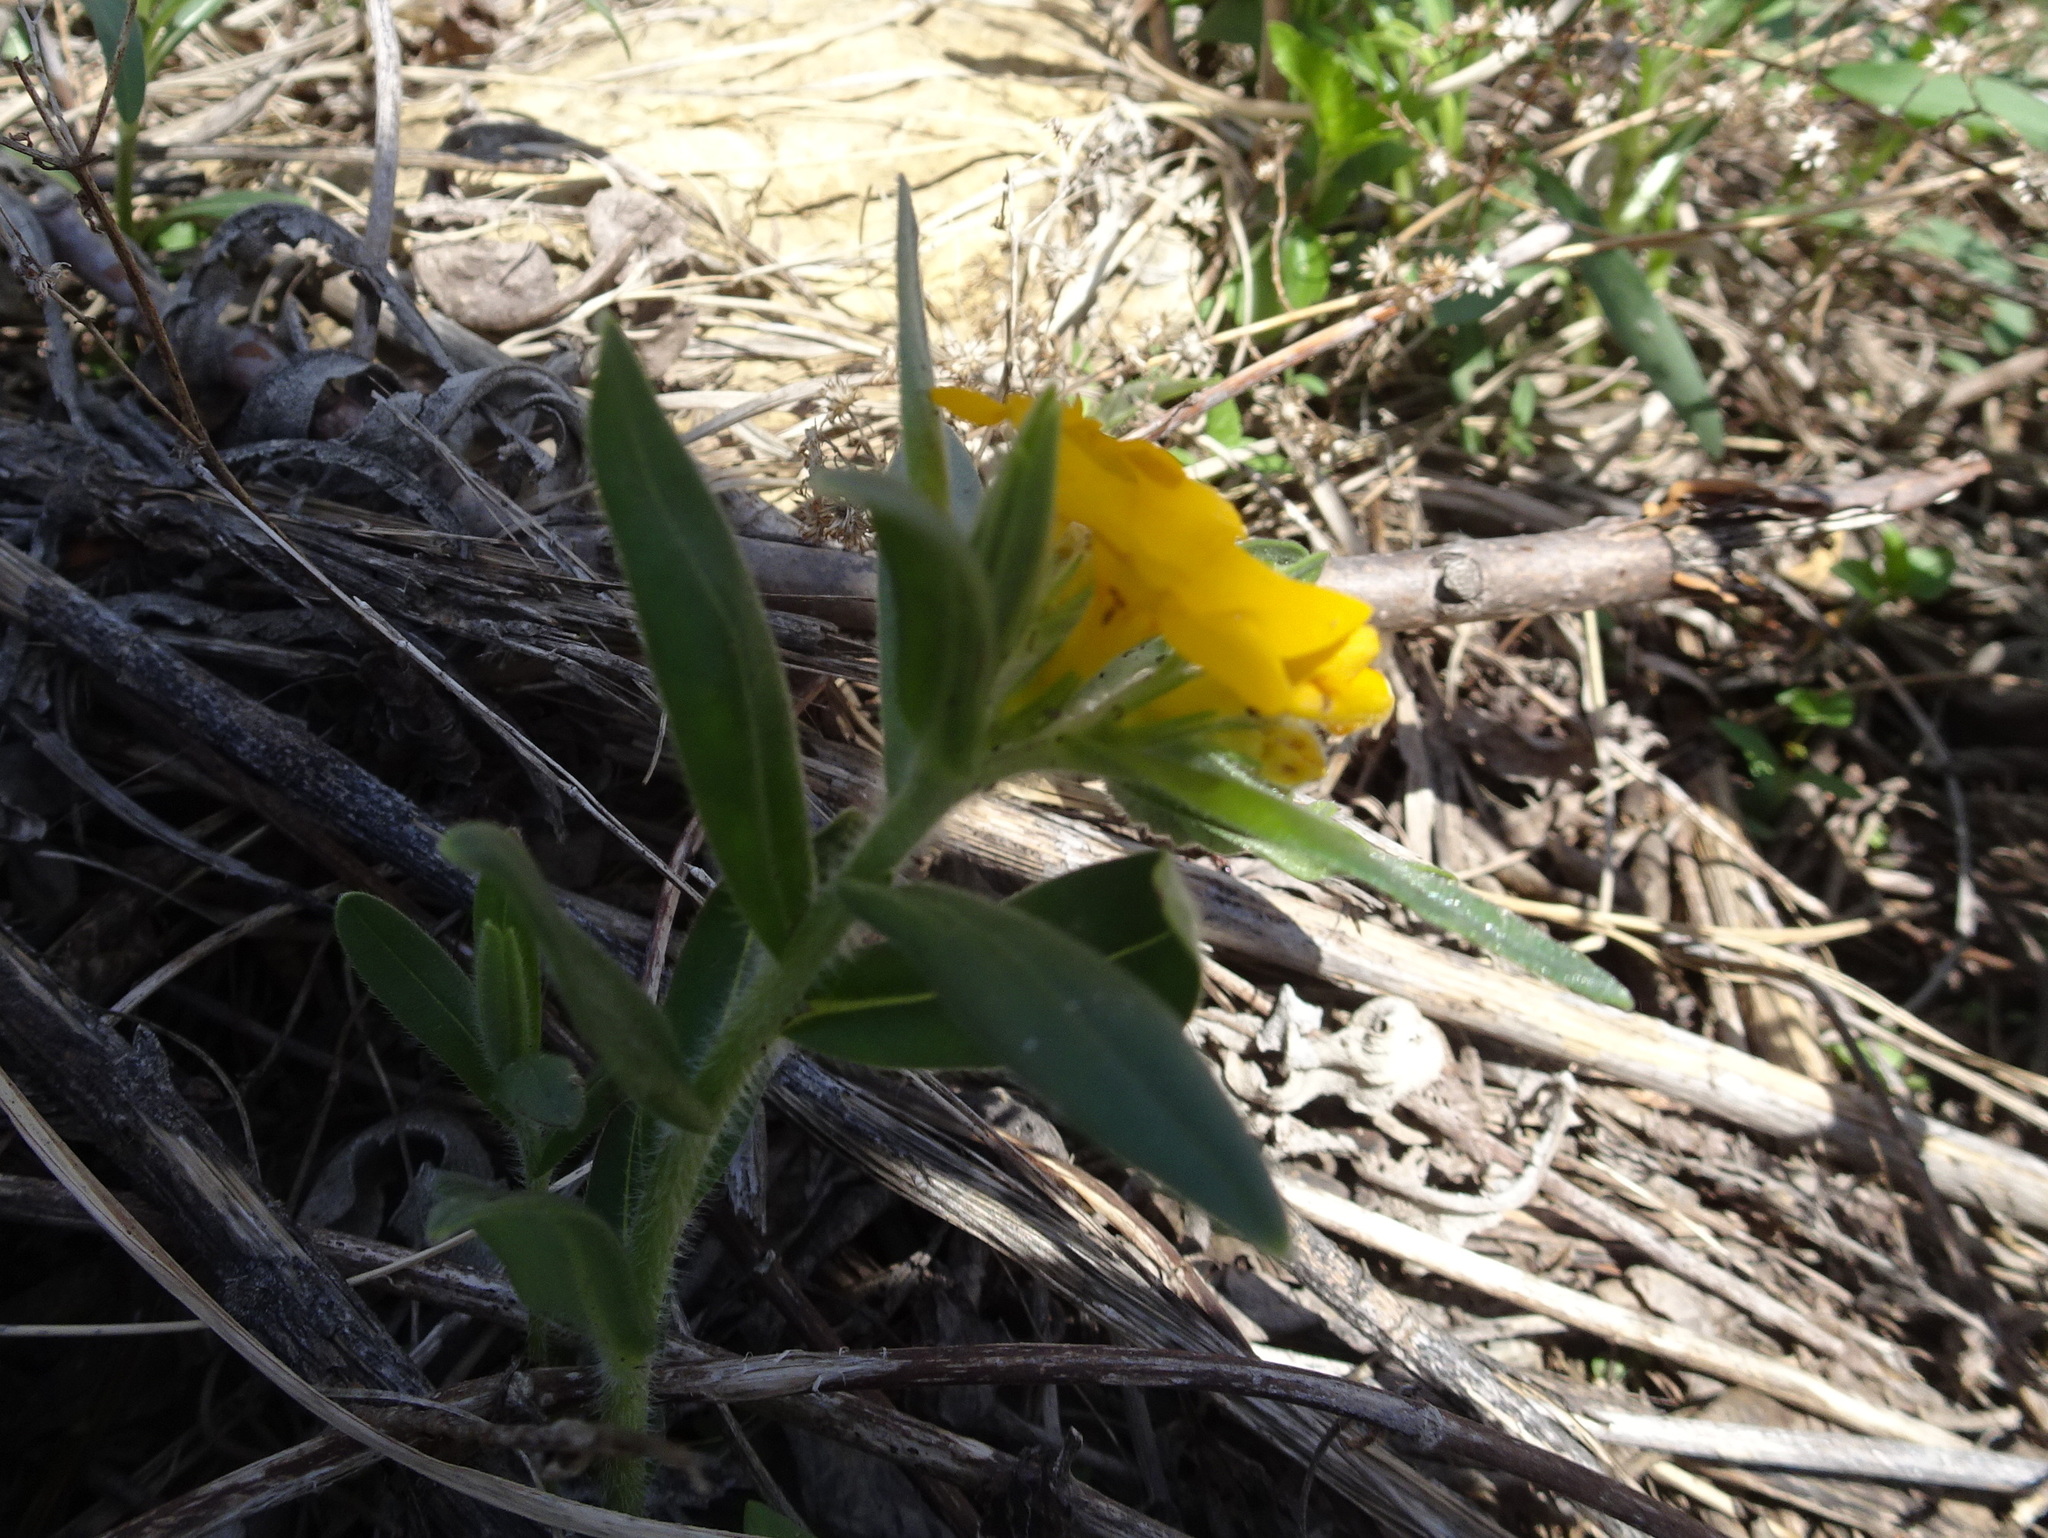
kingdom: Plantae
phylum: Tracheophyta
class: Magnoliopsida
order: Boraginales
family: Boraginaceae
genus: Lithospermum
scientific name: Lithospermum canescens
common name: Hoary puccoon
